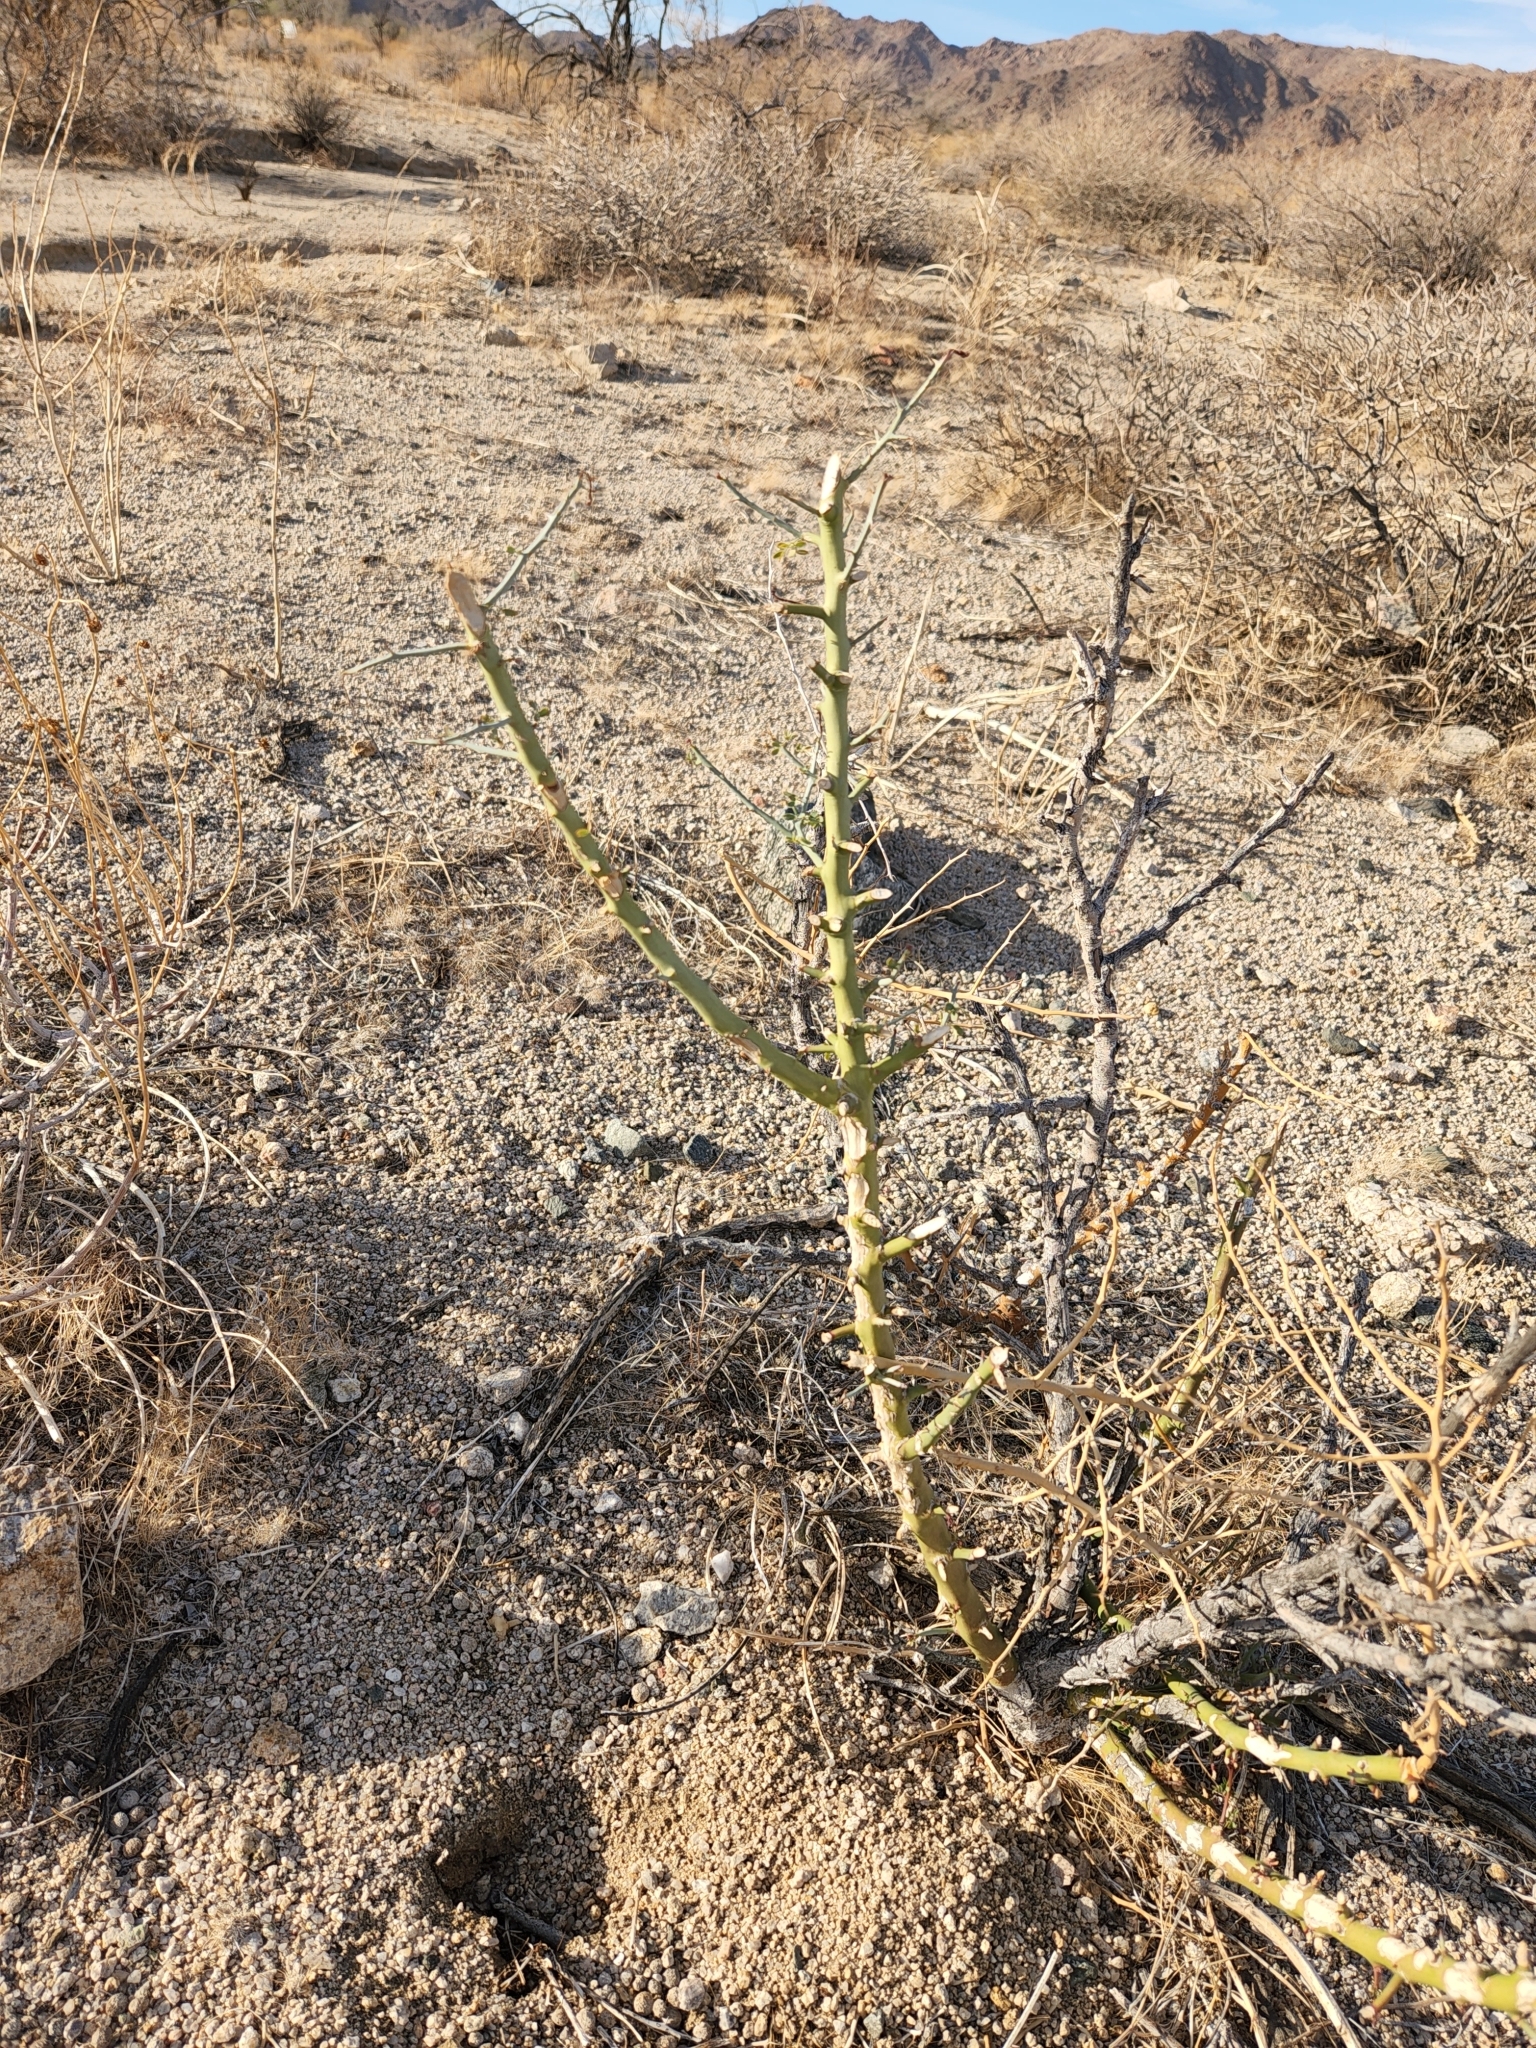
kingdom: Plantae
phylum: Tracheophyta
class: Magnoliopsida
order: Fabales
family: Fabaceae
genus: Parkinsonia
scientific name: Parkinsonia florida
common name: Blue paloverde
